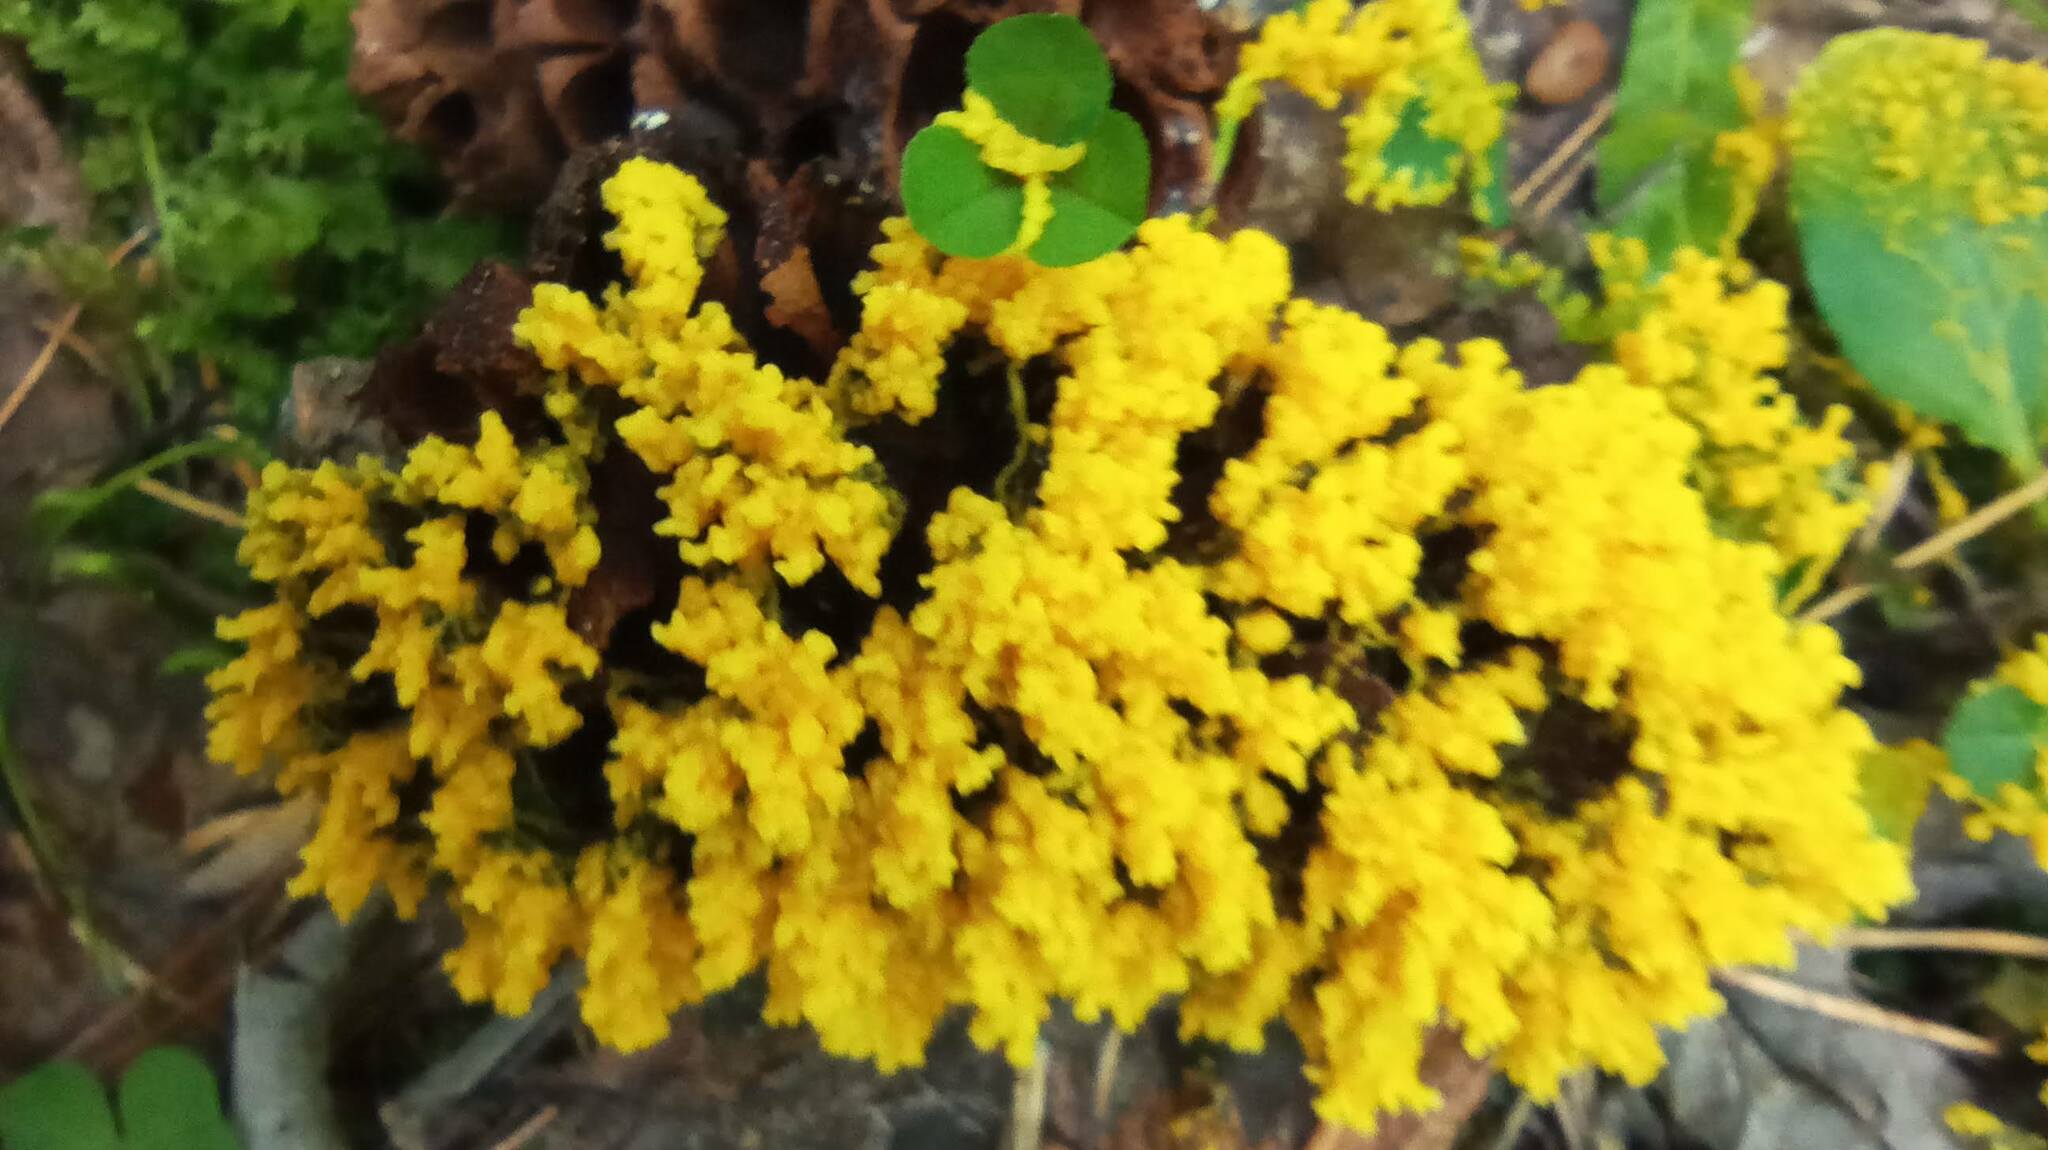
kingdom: Protozoa
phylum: Mycetozoa
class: Myxomycetes
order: Physarales
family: Physaraceae
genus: Fuligo
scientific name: Fuligo septica
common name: Dog vomit slime mold
